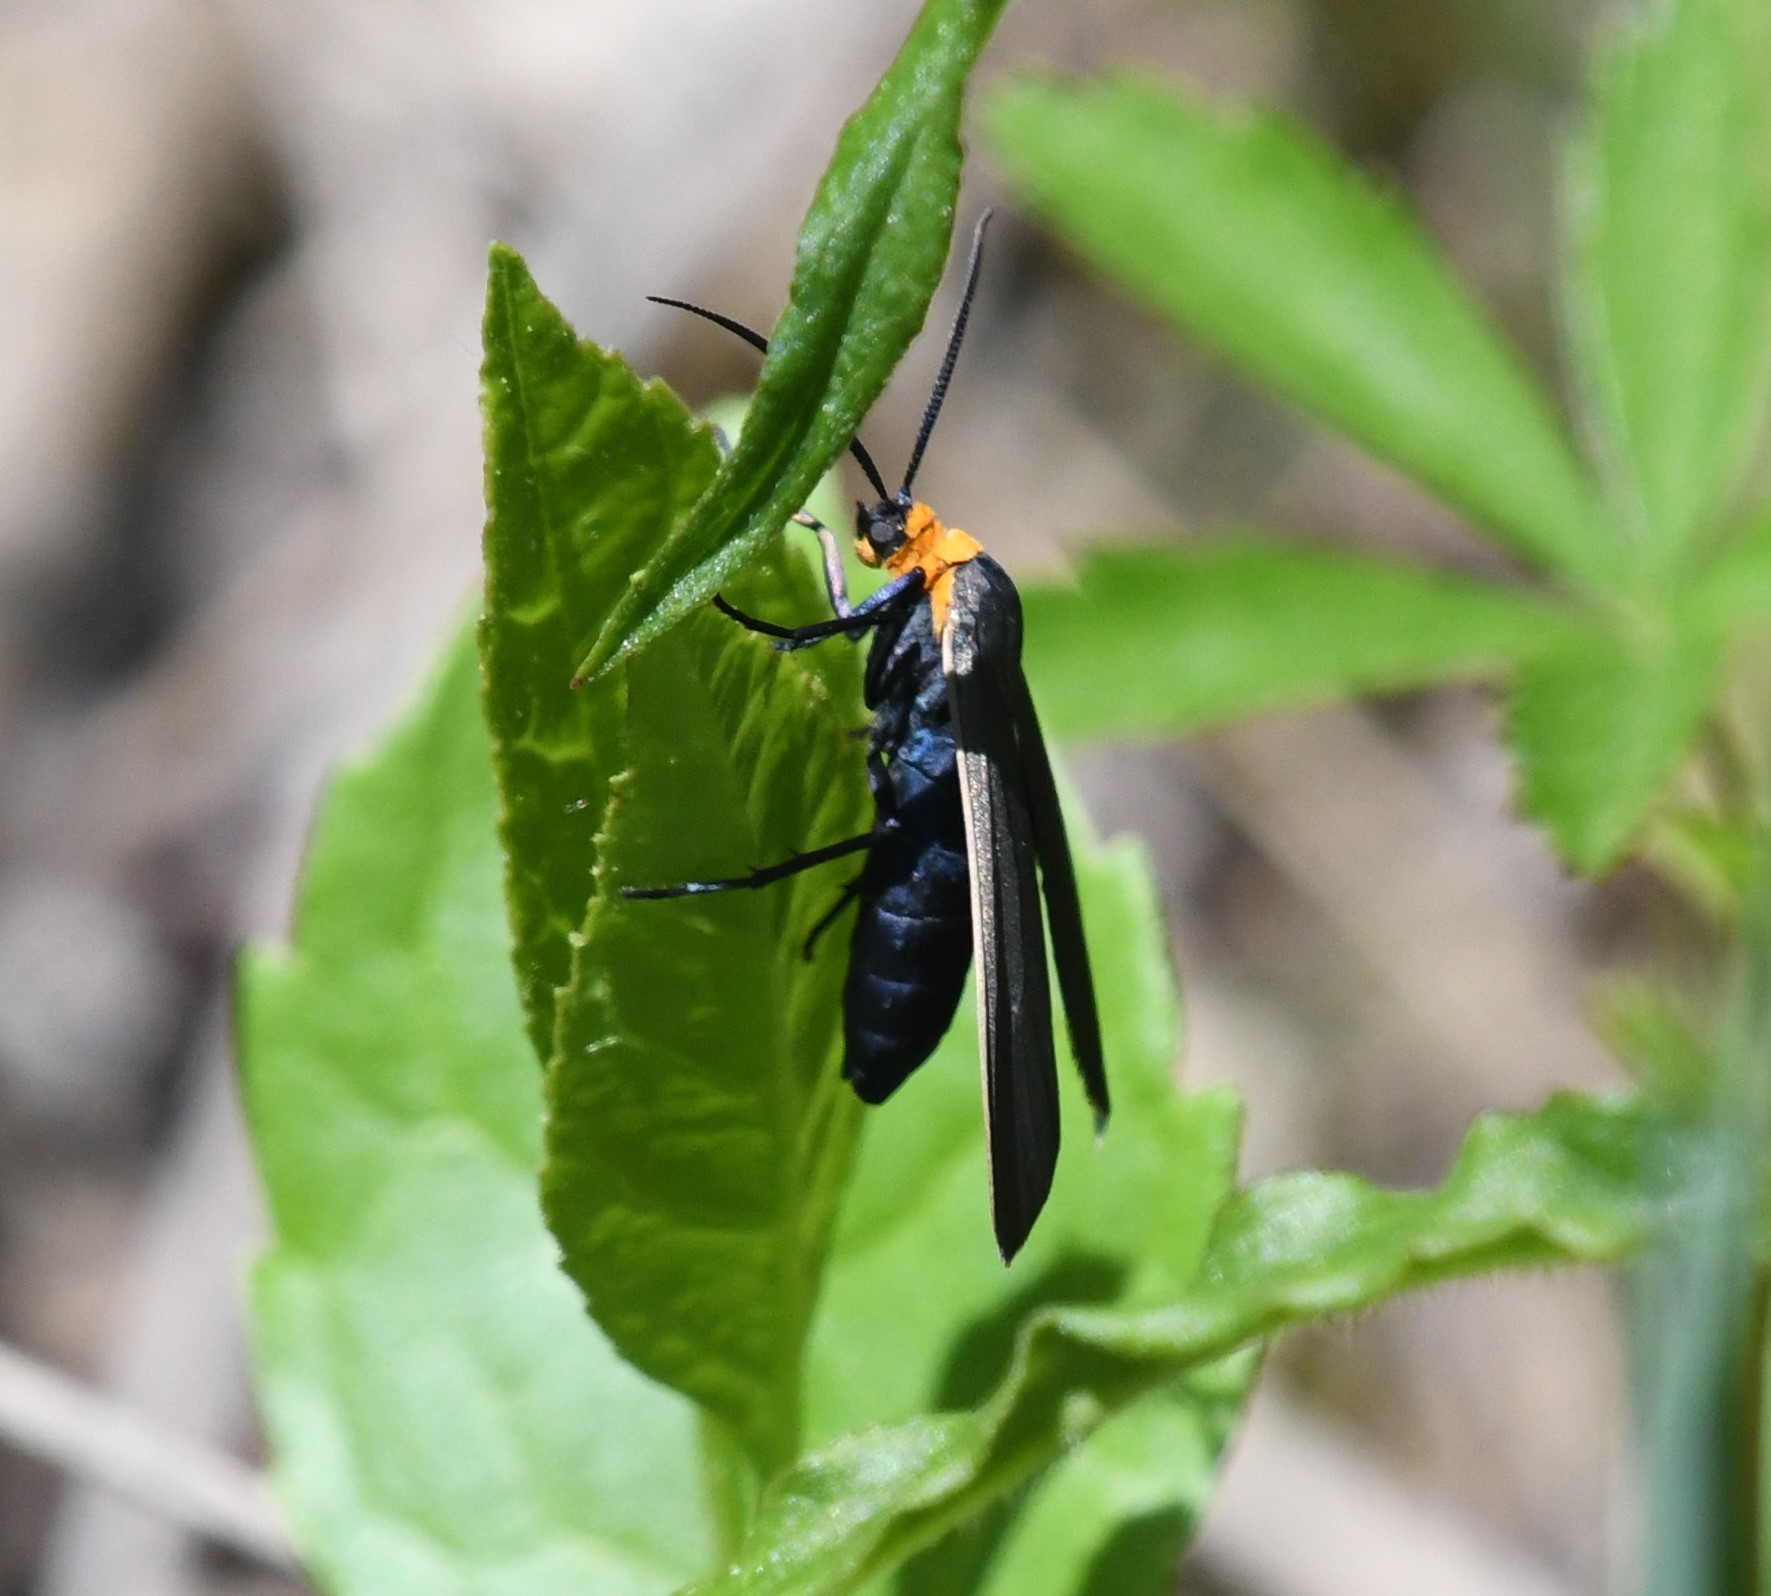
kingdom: Animalia
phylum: Arthropoda
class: Insecta
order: Lepidoptera
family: Erebidae
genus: Cisseps
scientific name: Cisseps fulvicollis
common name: Yellow-collared scape moth
